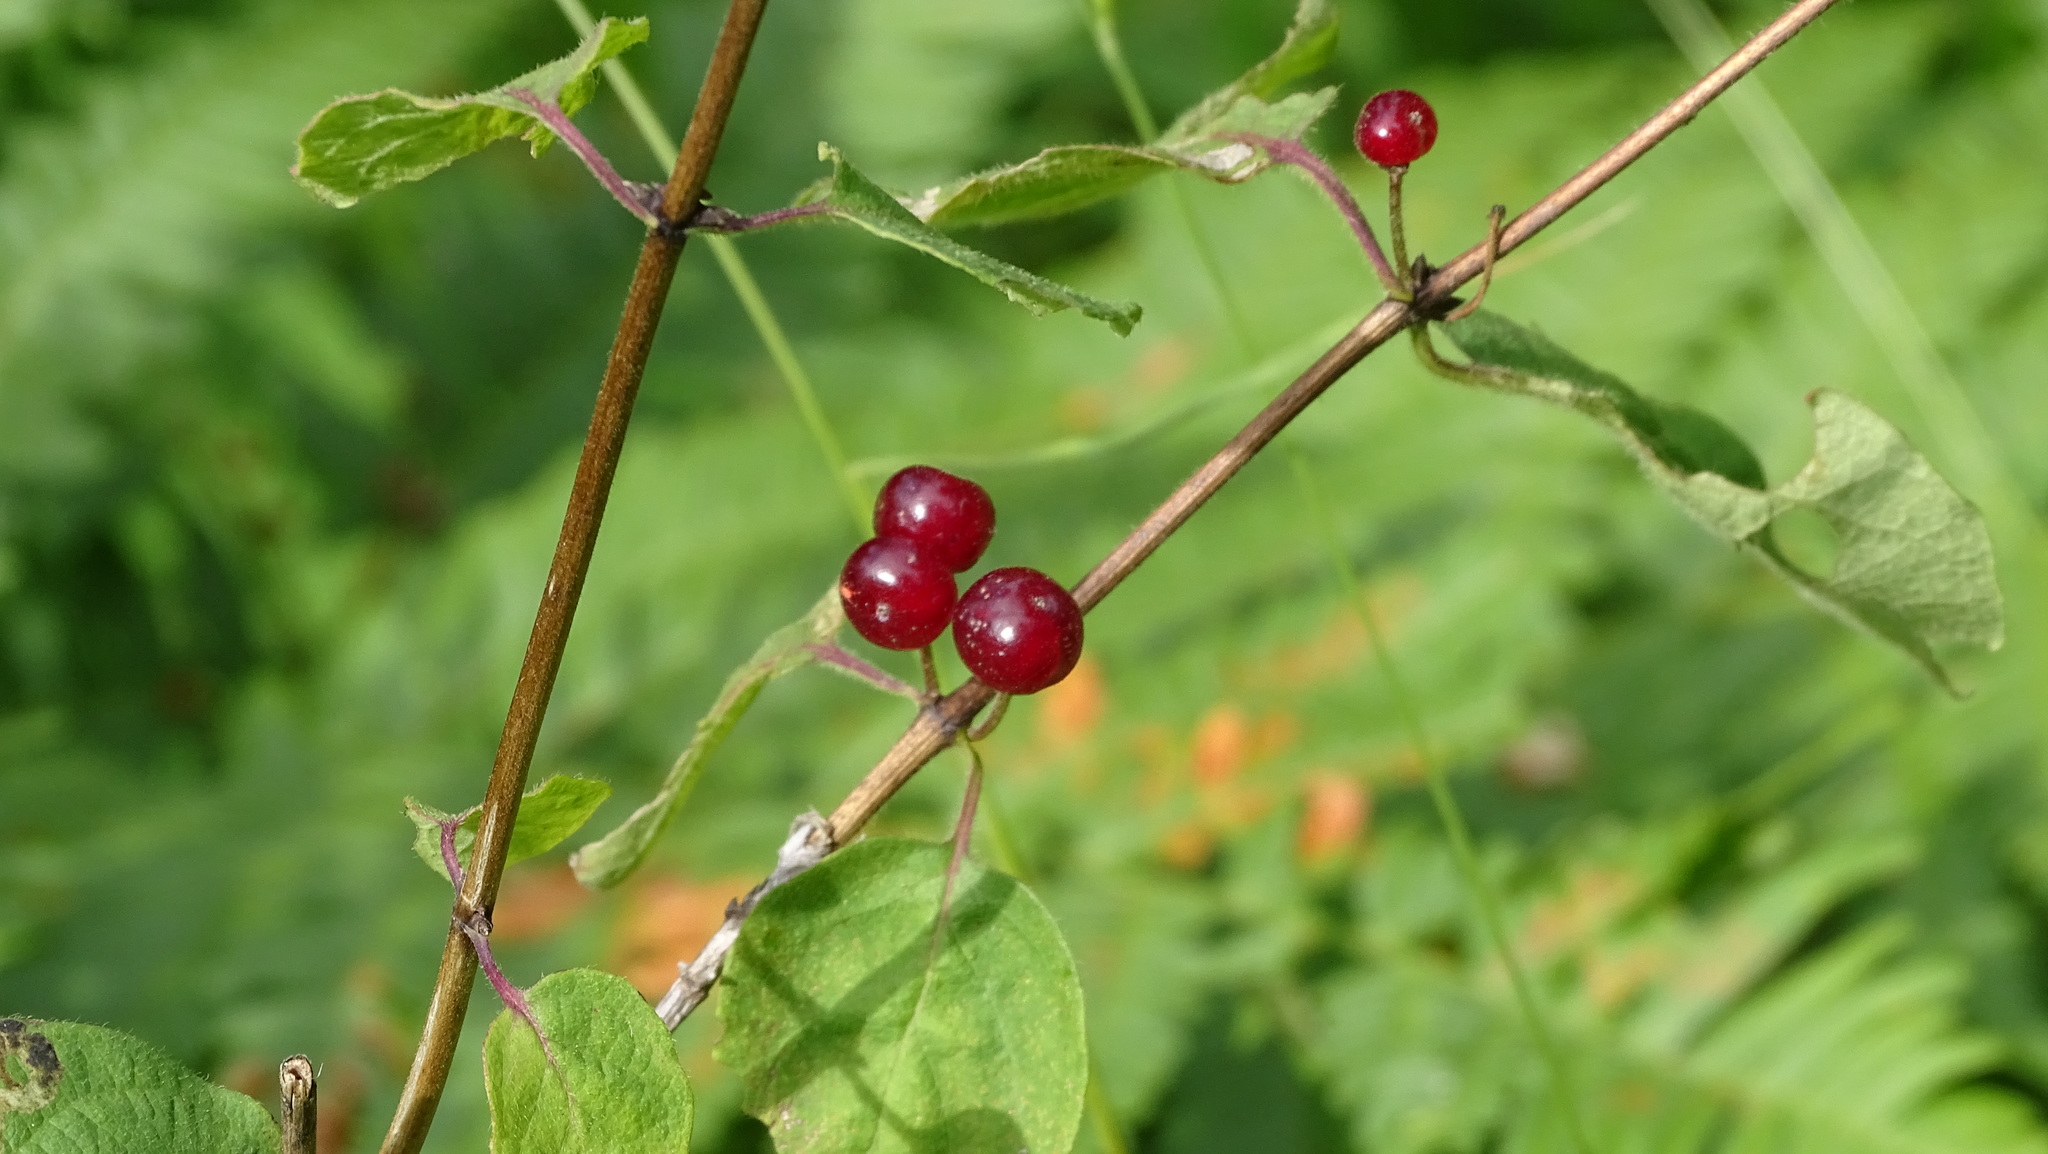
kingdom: Plantae
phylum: Tracheophyta
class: Magnoliopsida
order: Dipsacales
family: Caprifoliaceae
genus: Lonicera
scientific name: Lonicera xylosteum
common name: Fly honeysuckle
